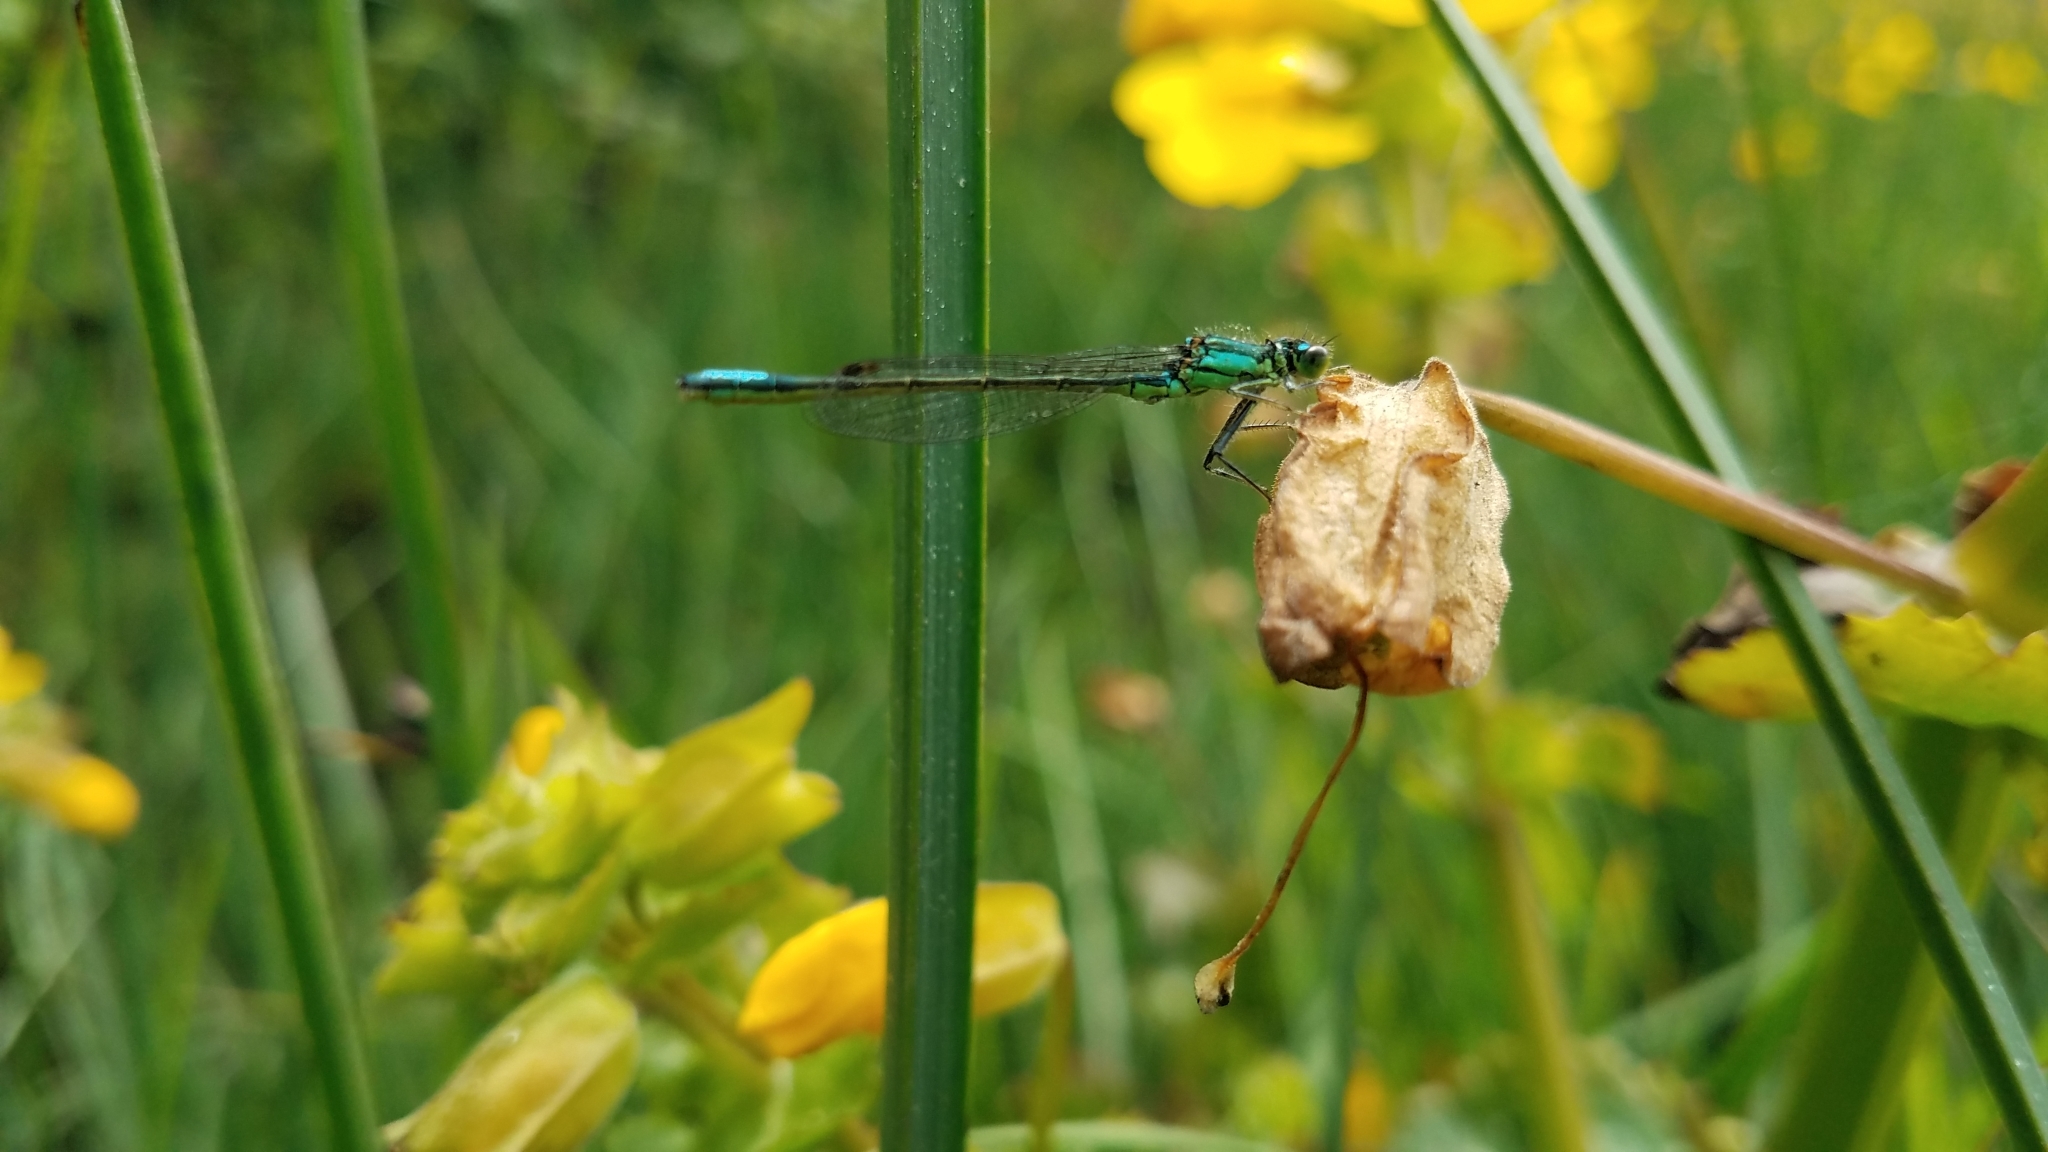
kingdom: Animalia
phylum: Arthropoda
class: Insecta
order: Odonata
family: Coenagrionidae
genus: Ischnura
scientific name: Ischnura gemina
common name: San francisco forktail
